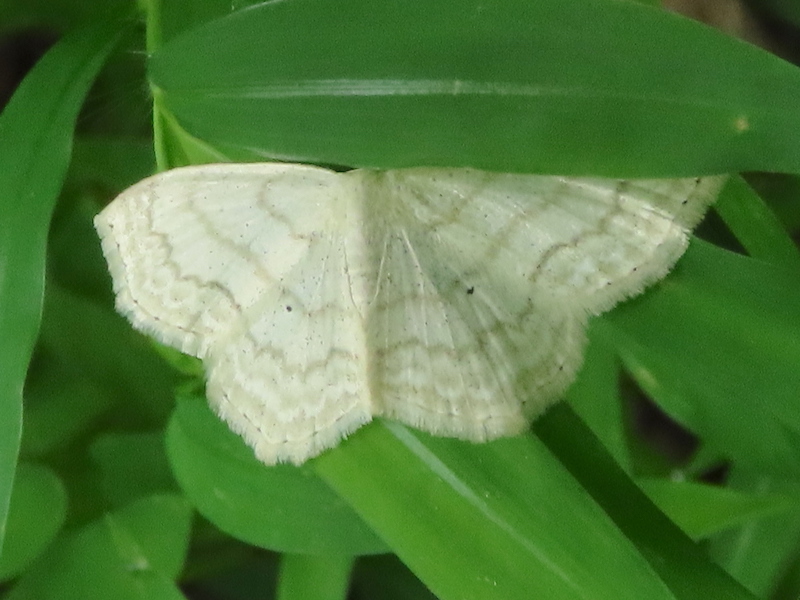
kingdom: Animalia
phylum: Arthropoda
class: Insecta
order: Lepidoptera
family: Geometridae
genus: Scopula
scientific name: Scopula limboundata
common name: Large lace border
